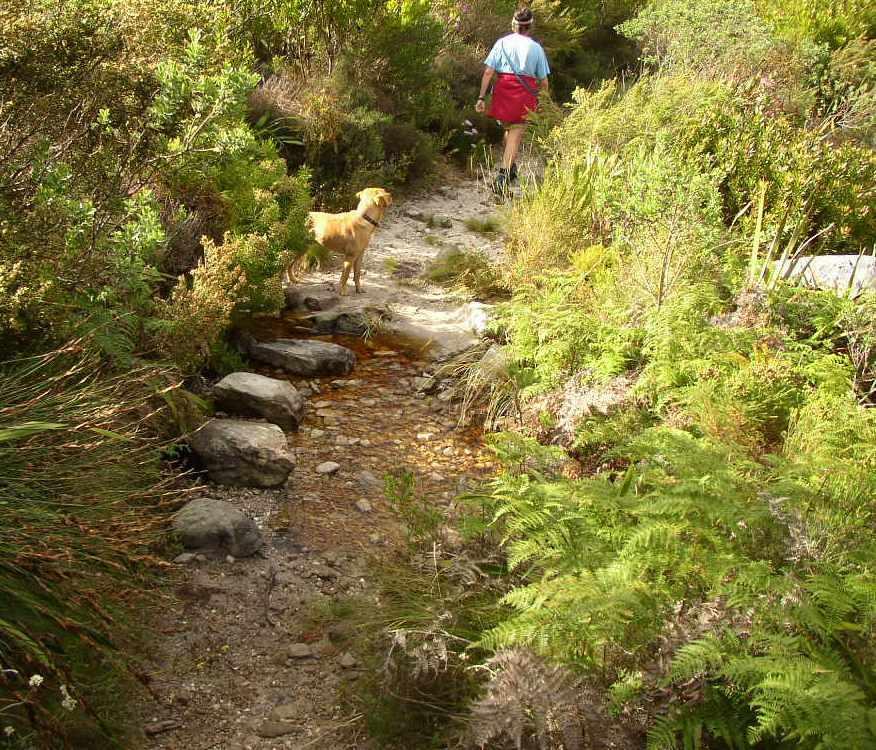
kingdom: Plantae
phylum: Tracheophyta
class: Polypodiopsida
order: Polypodiales
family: Dennstaedtiaceae
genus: Pteridium
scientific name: Pteridium aquilinum
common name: Bracken
